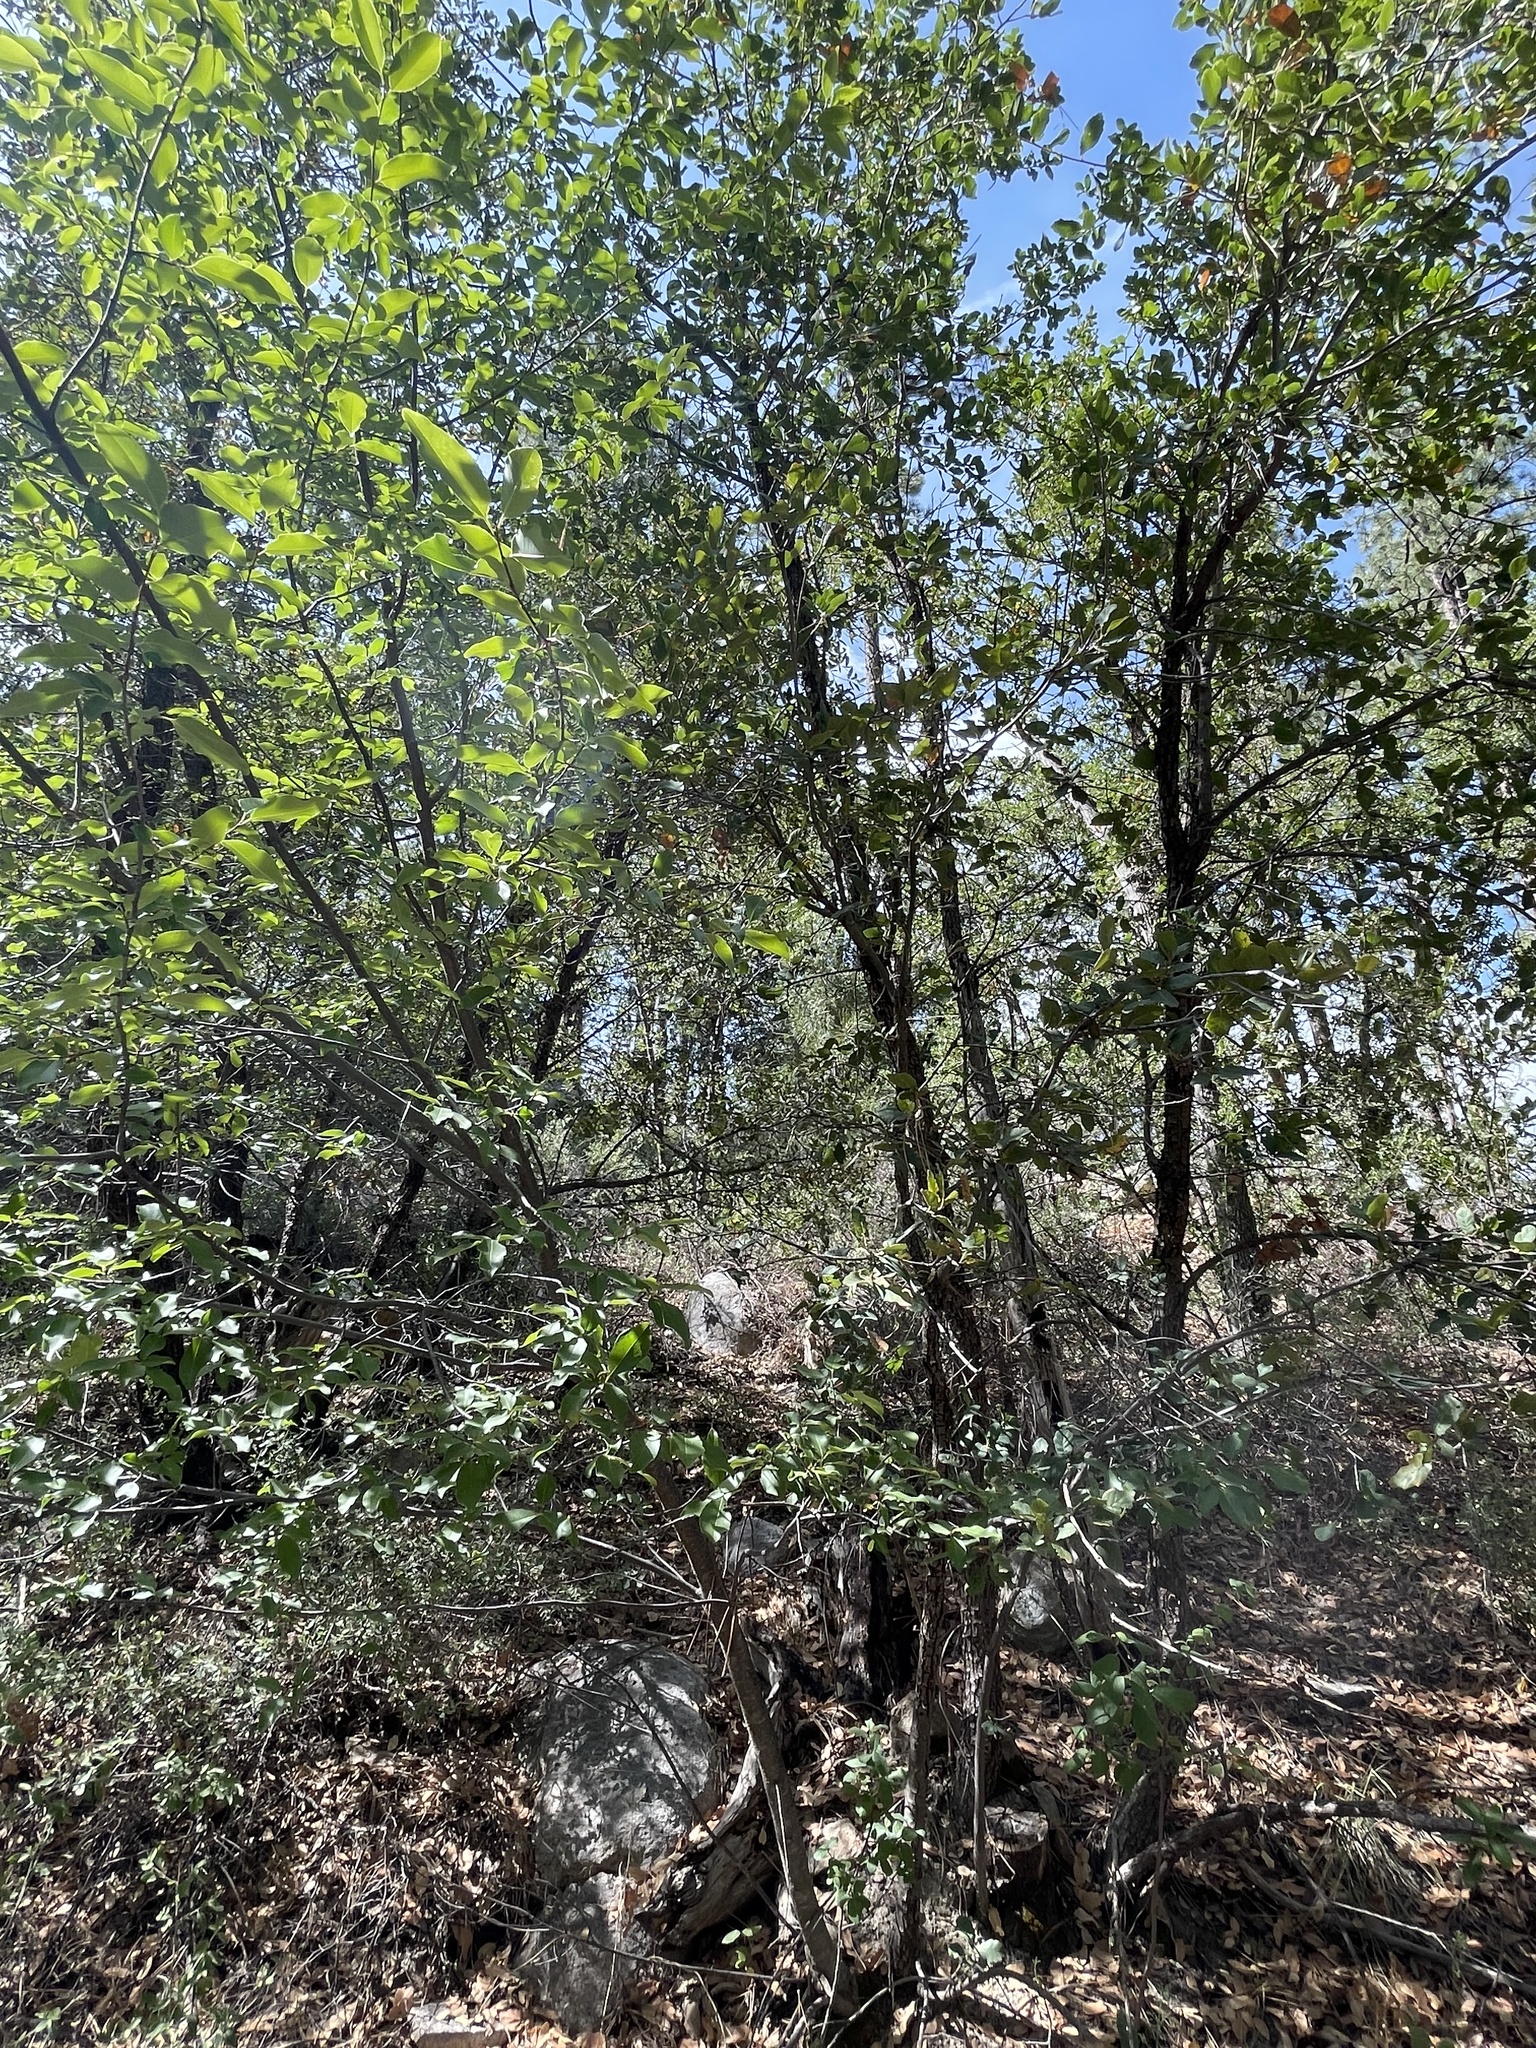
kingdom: Plantae
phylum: Tracheophyta
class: Magnoliopsida
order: Rosales
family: Rhamnaceae
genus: Ceanothus
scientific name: Ceanothus fendleri
